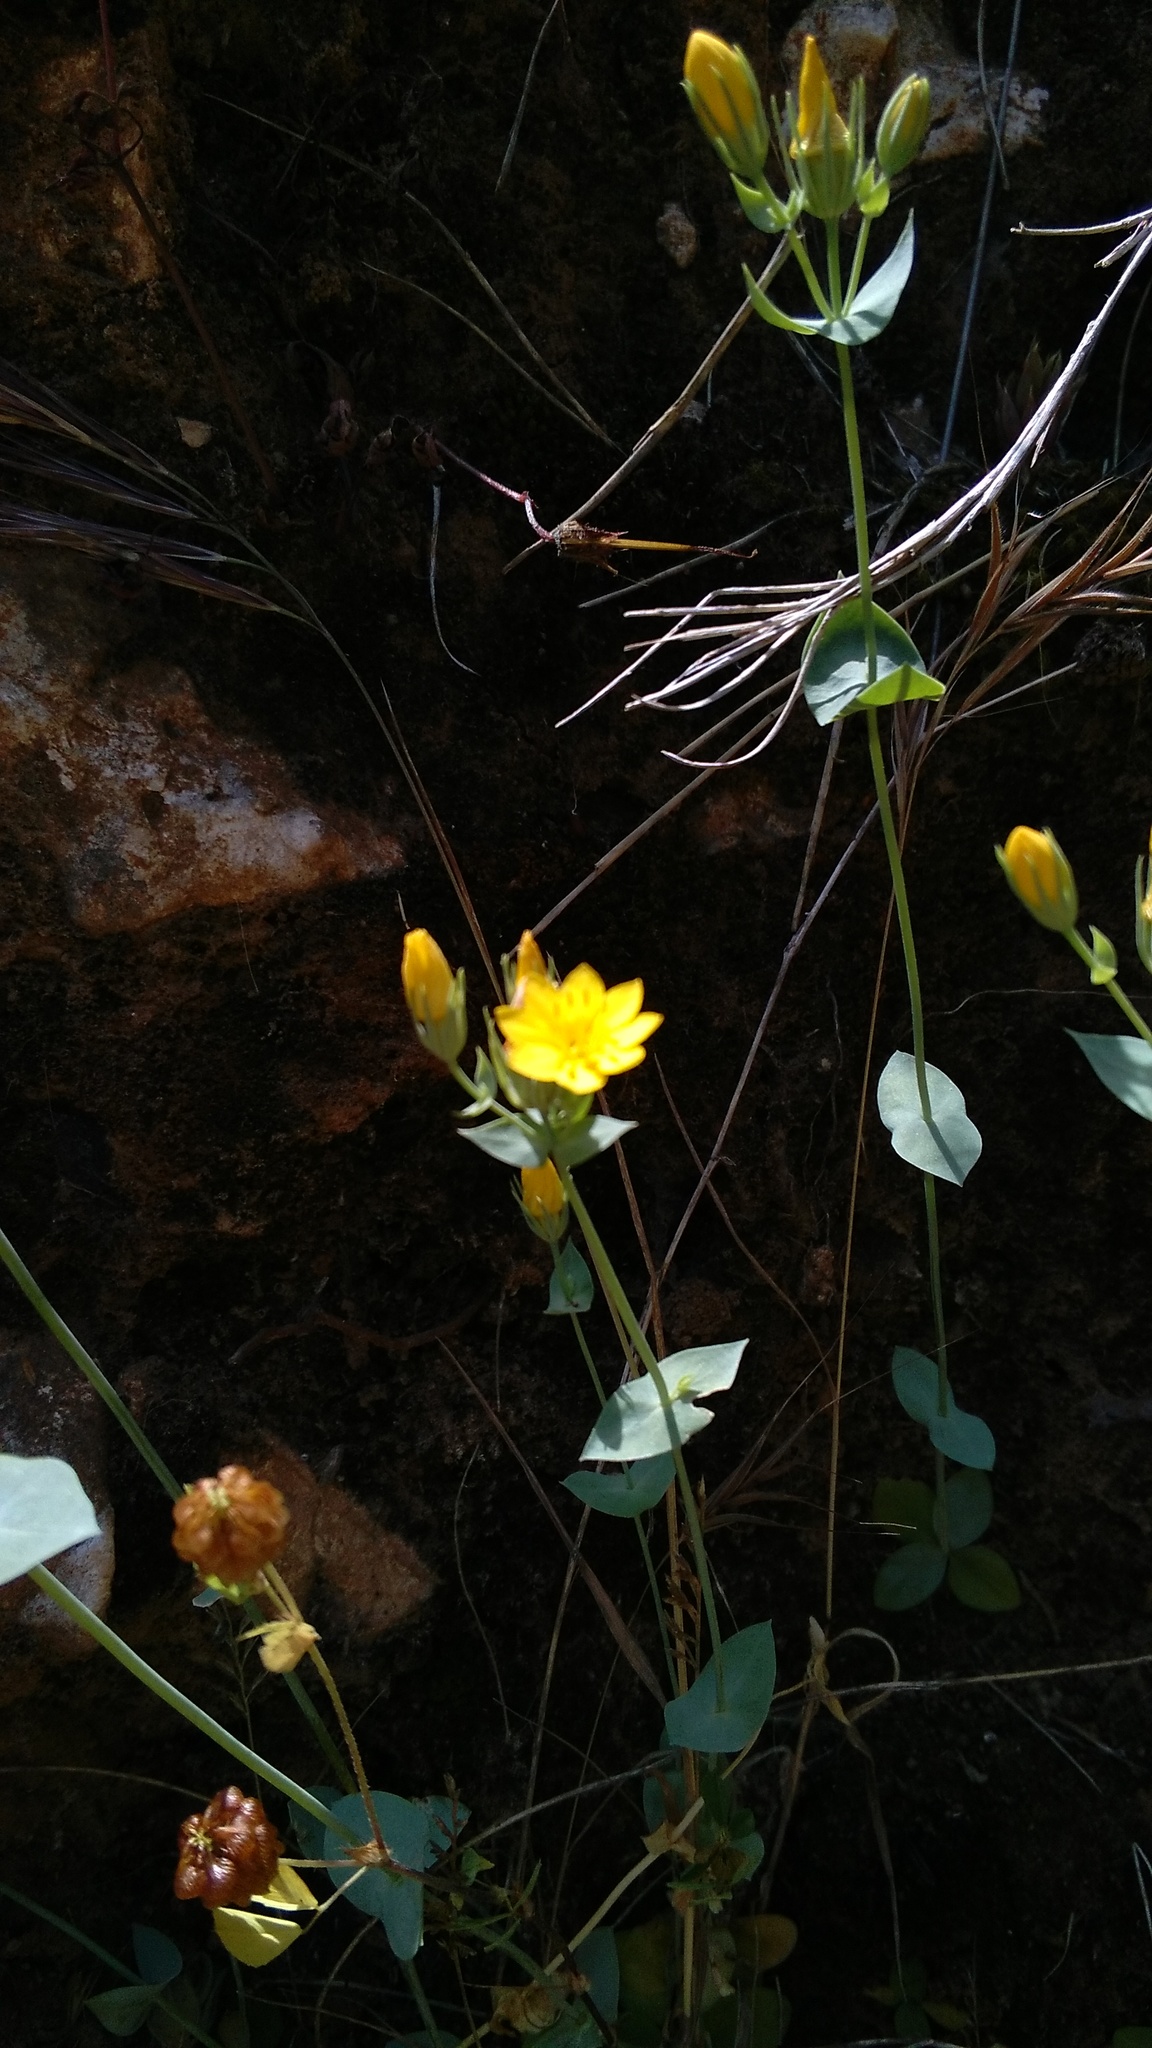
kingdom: Plantae
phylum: Tracheophyta
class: Magnoliopsida
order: Gentianales
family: Gentianaceae
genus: Blackstonia
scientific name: Blackstonia perfoliata
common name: Yellow-wort
